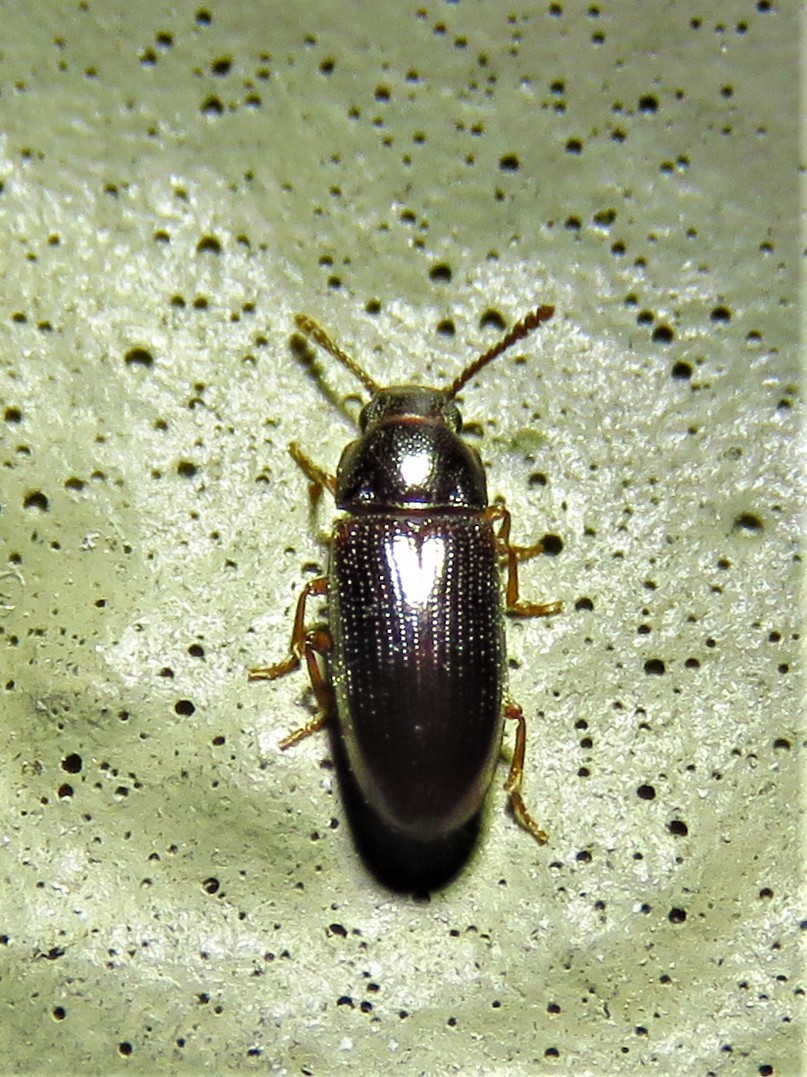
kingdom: Animalia
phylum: Arthropoda
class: Insecta
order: Coleoptera
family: Erotylidae
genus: Pharaxonotha
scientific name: Pharaxonotha kirschii
